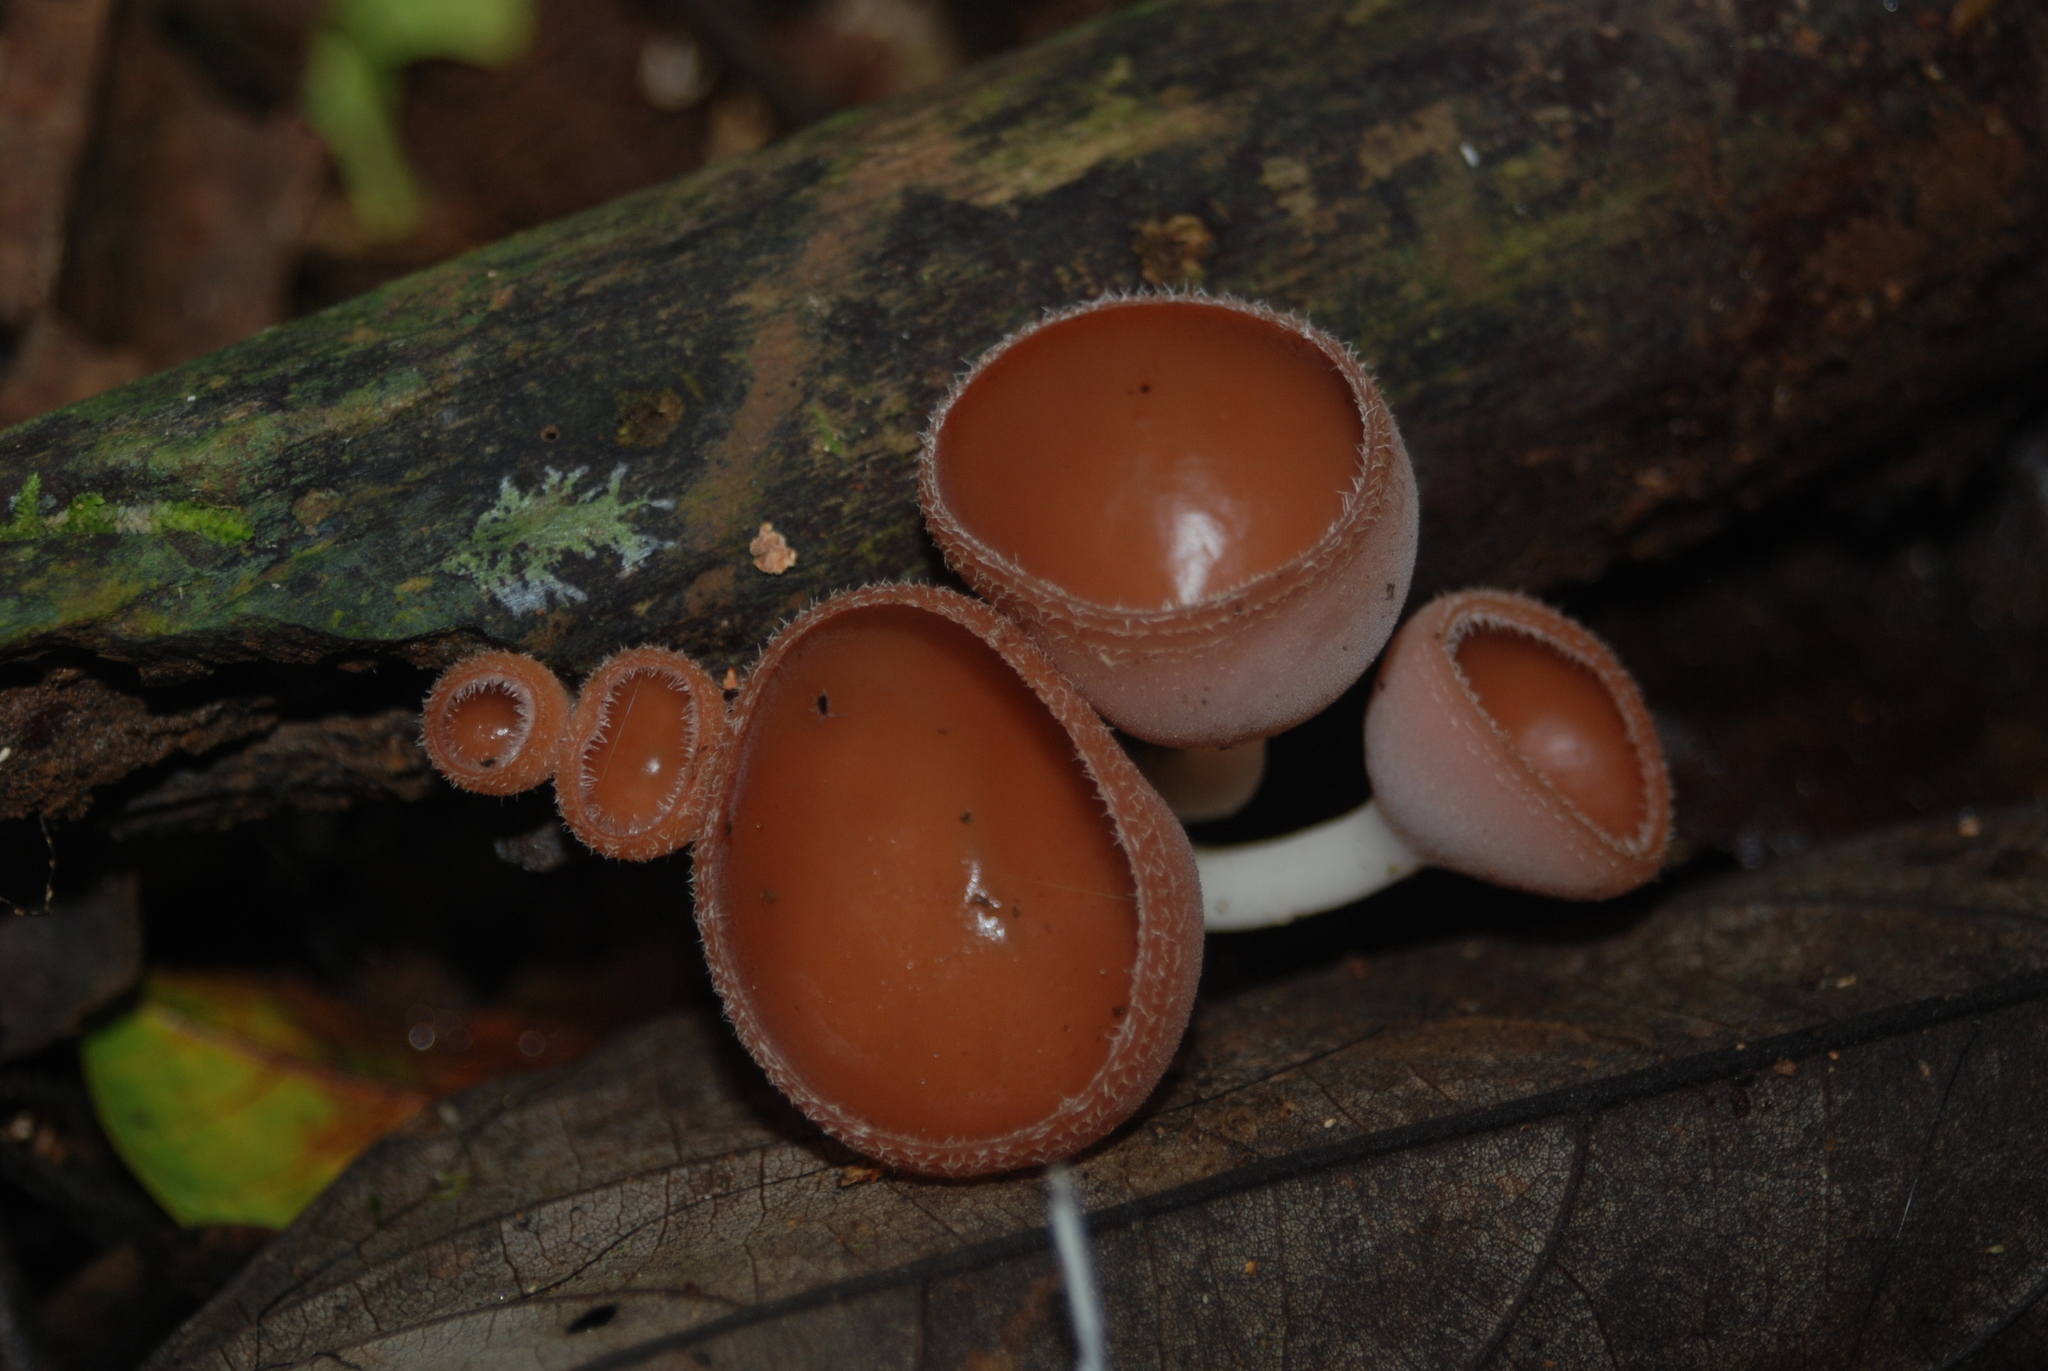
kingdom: Fungi
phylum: Ascomycota
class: Pezizomycetes
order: Pezizales
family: Sarcoscyphaceae
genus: Cookeina
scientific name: Cookeina colombiana
